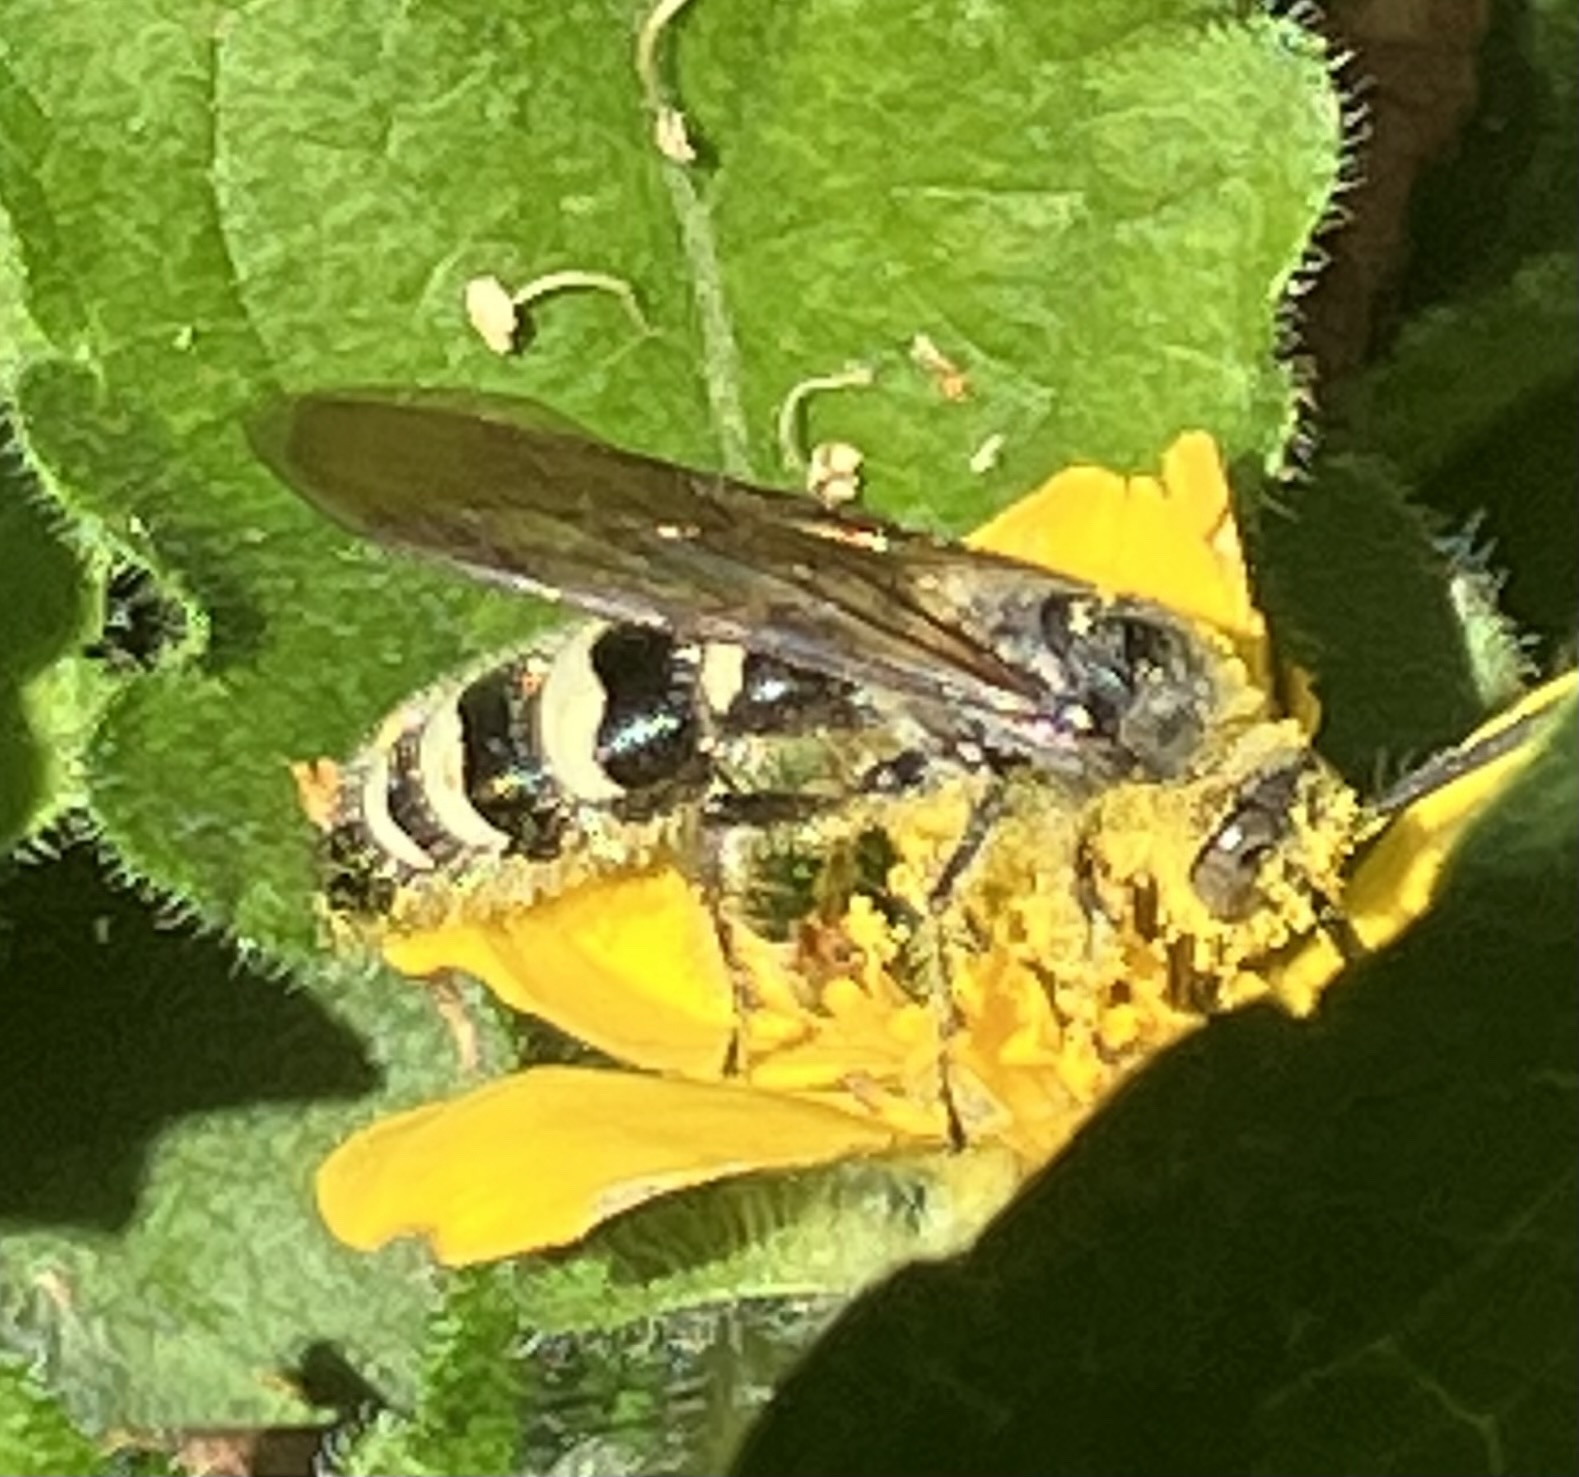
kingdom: Animalia
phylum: Arthropoda
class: Insecta
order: Hymenoptera
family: Scoliidae
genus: Dielis
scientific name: Dielis
